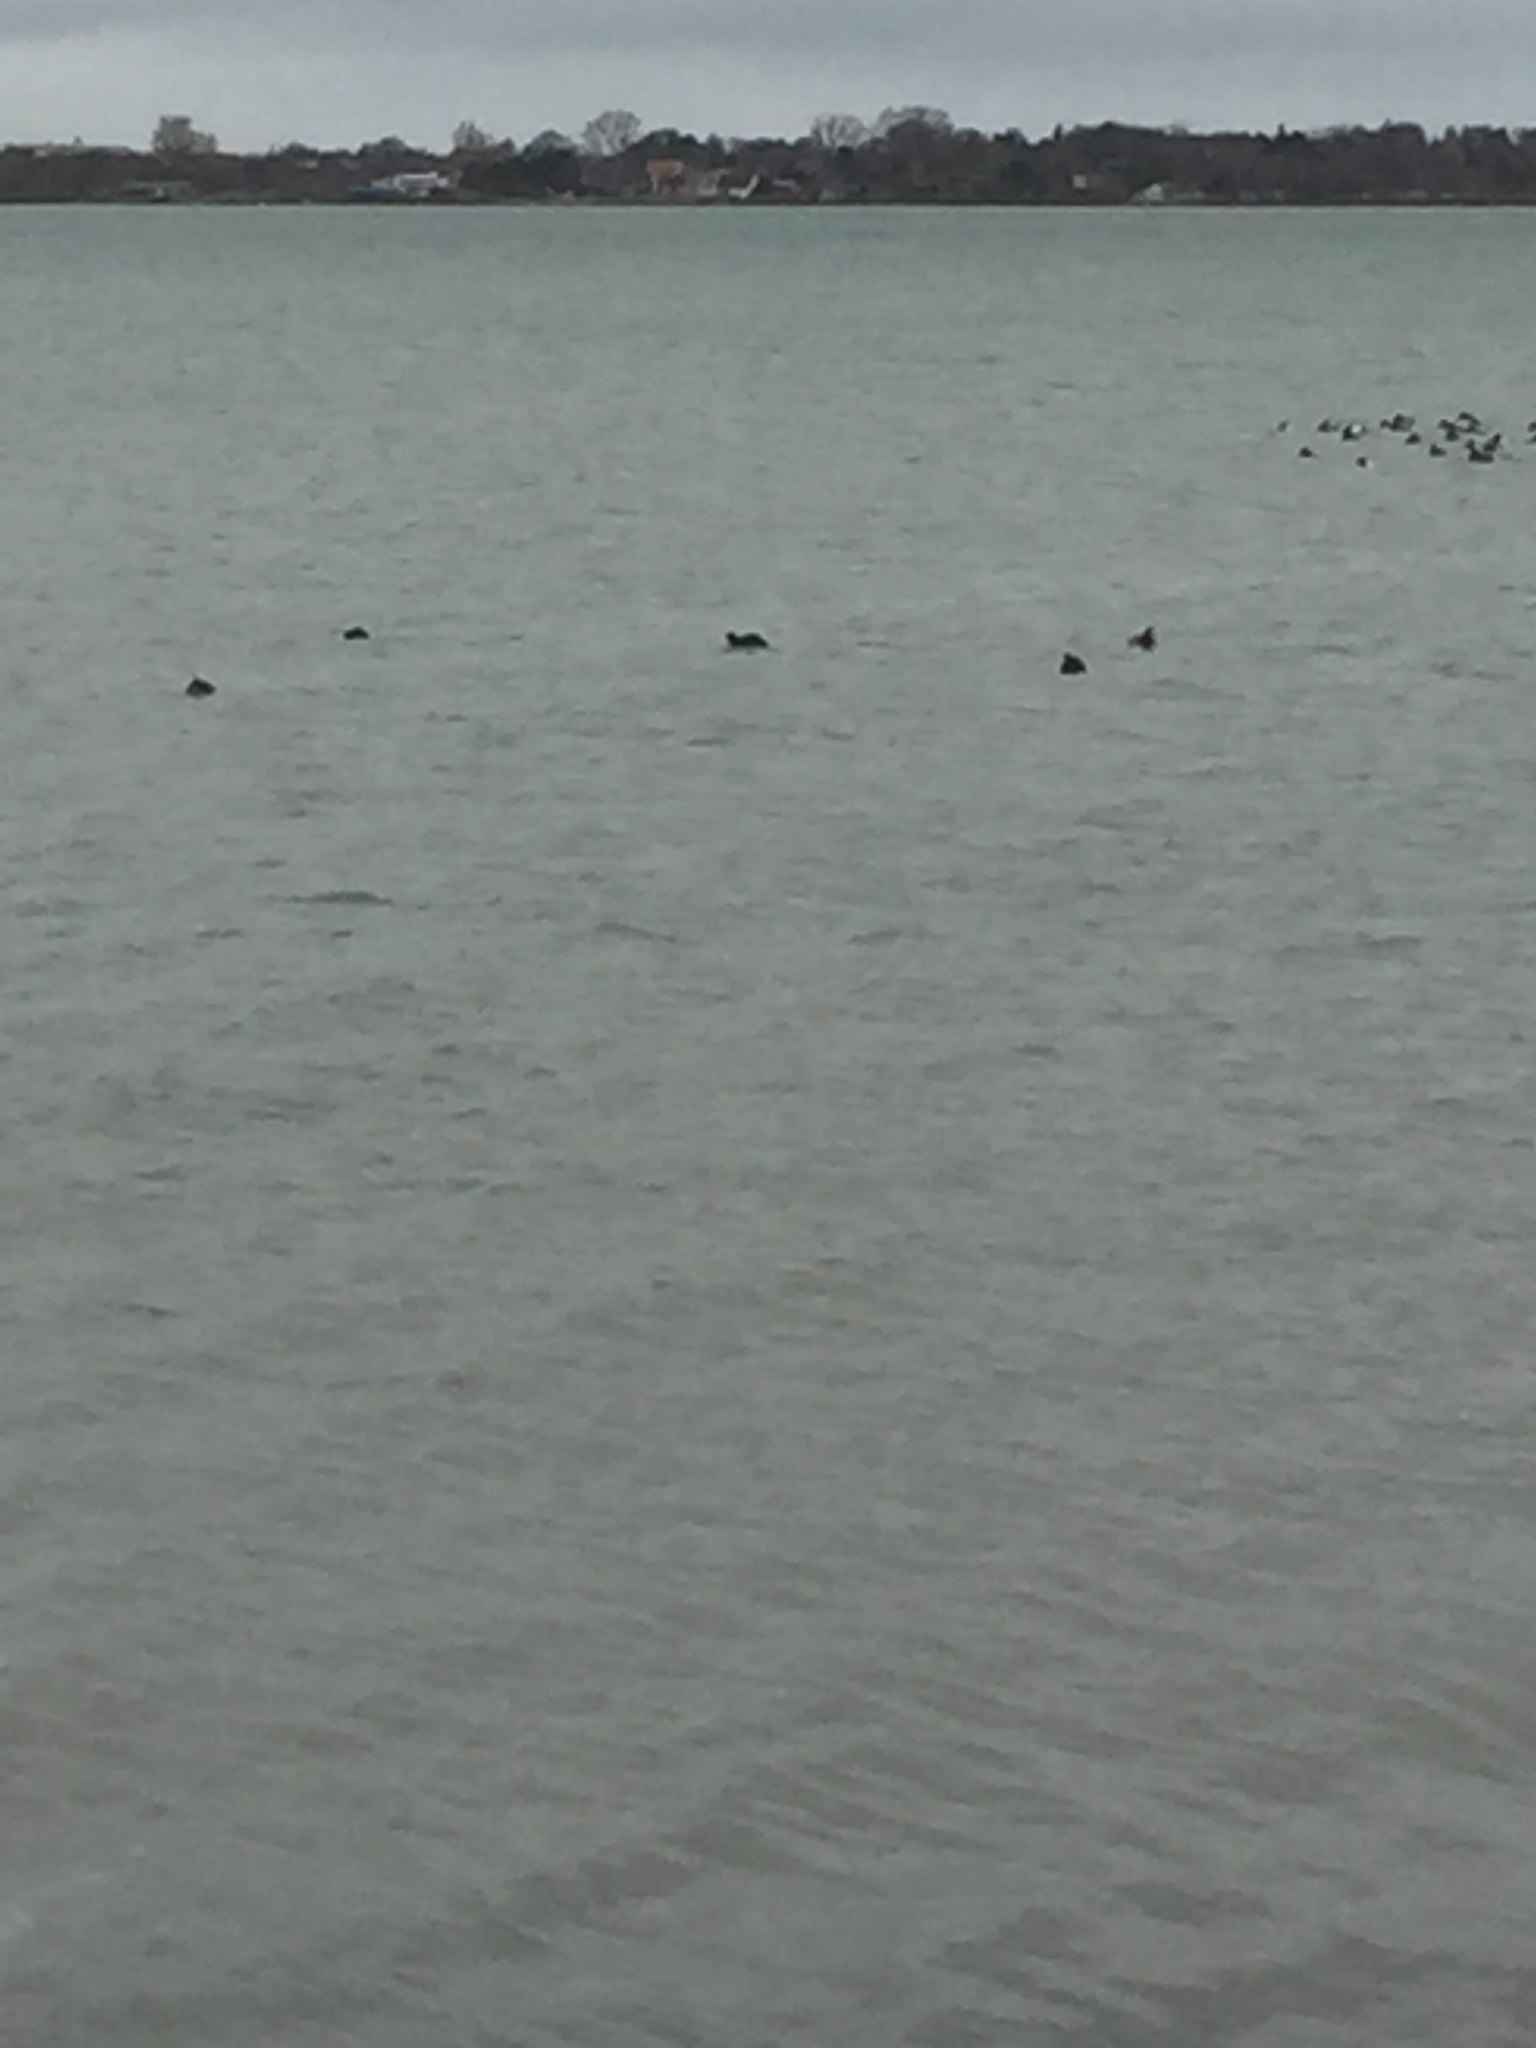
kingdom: Animalia
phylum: Chordata
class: Aves
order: Gruiformes
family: Rallidae
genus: Fulica
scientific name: Fulica atra
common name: Eurasian coot
